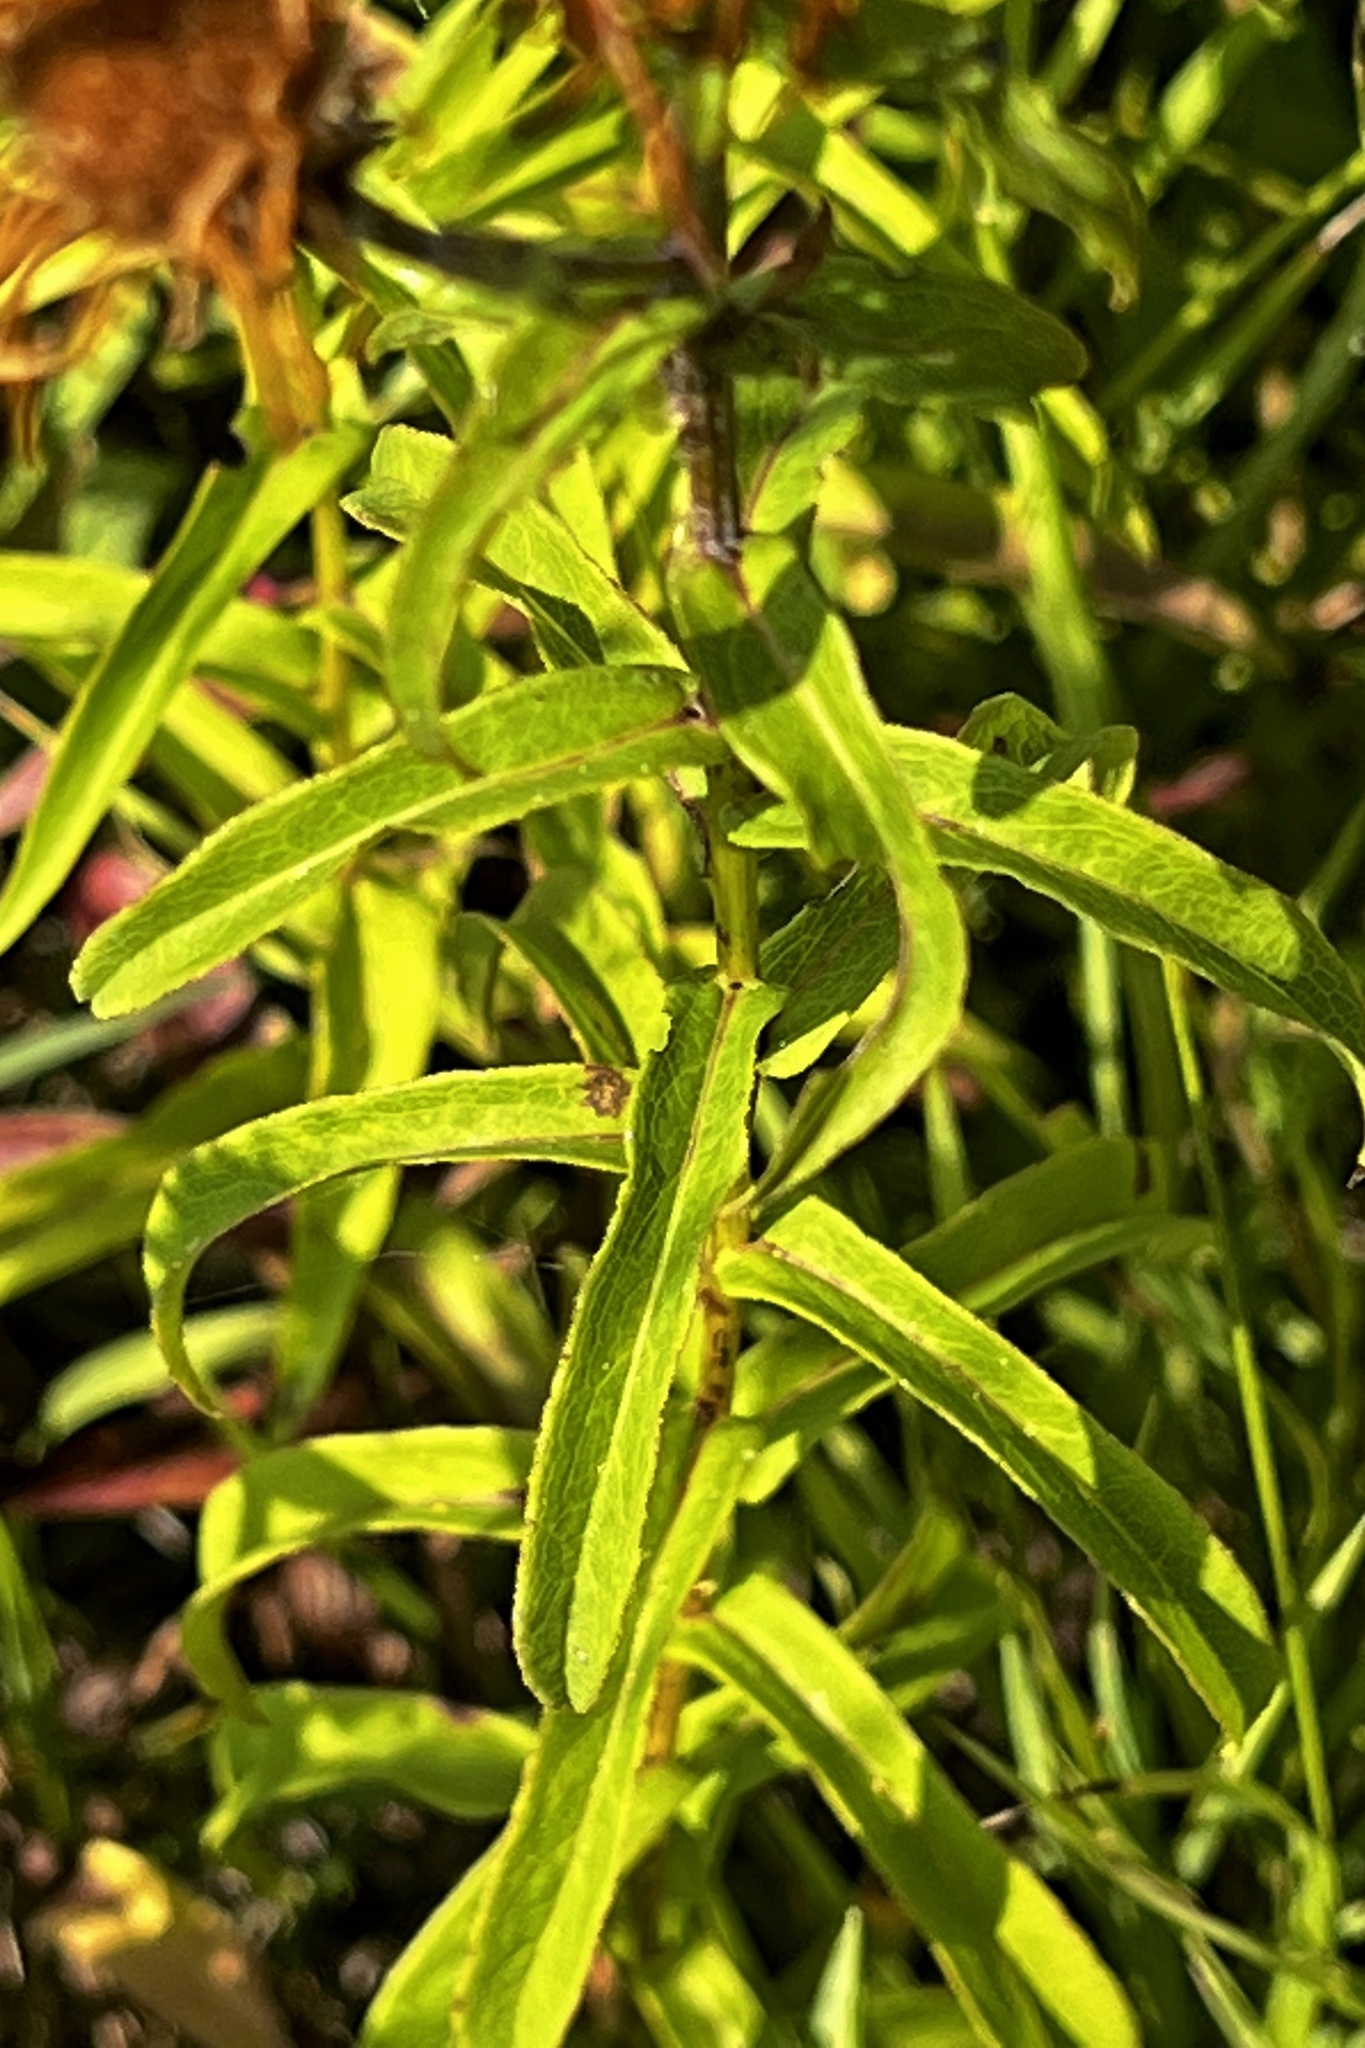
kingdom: Plantae
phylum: Tracheophyta
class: Magnoliopsida
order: Asterales
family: Asteraceae
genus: Pentanema
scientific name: Pentanema salicinum
